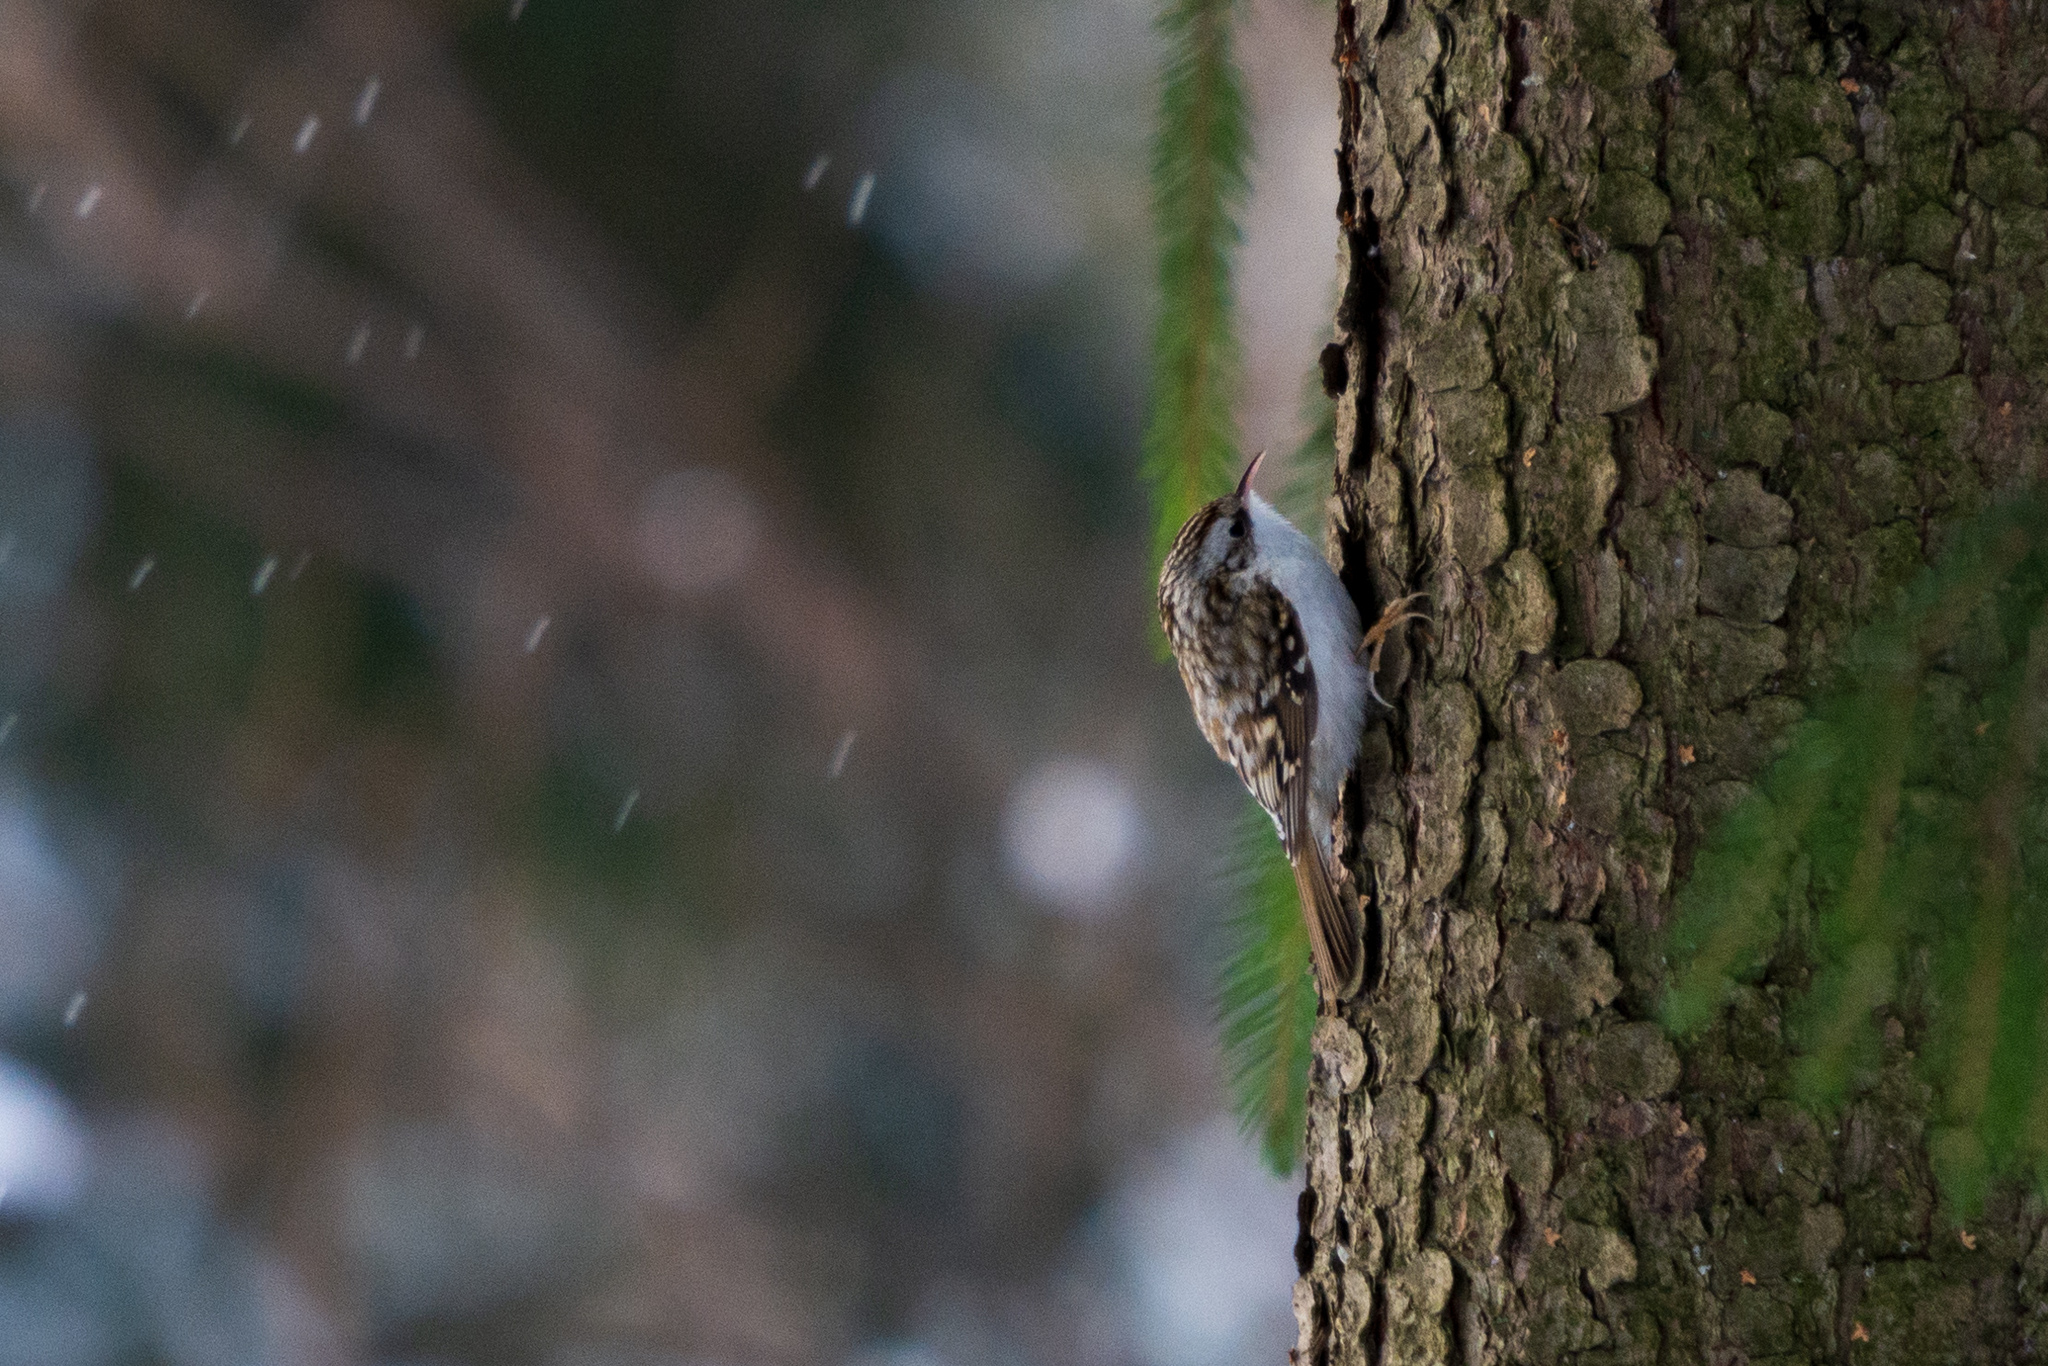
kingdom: Animalia
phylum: Chordata
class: Aves
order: Passeriformes
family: Certhiidae
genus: Certhia
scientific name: Certhia familiaris
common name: Eurasian treecreeper
